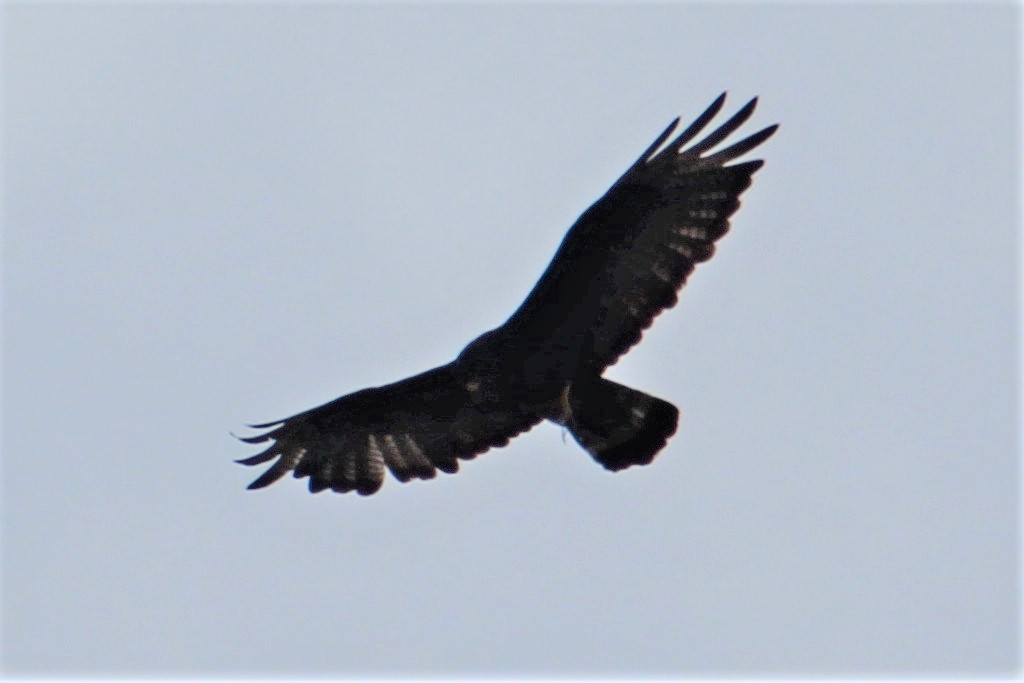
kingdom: Animalia
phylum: Chordata
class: Aves
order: Accipitriformes
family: Accipitridae
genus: Buteo
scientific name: Buteo albonotatus
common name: Zone-tailed hawk
